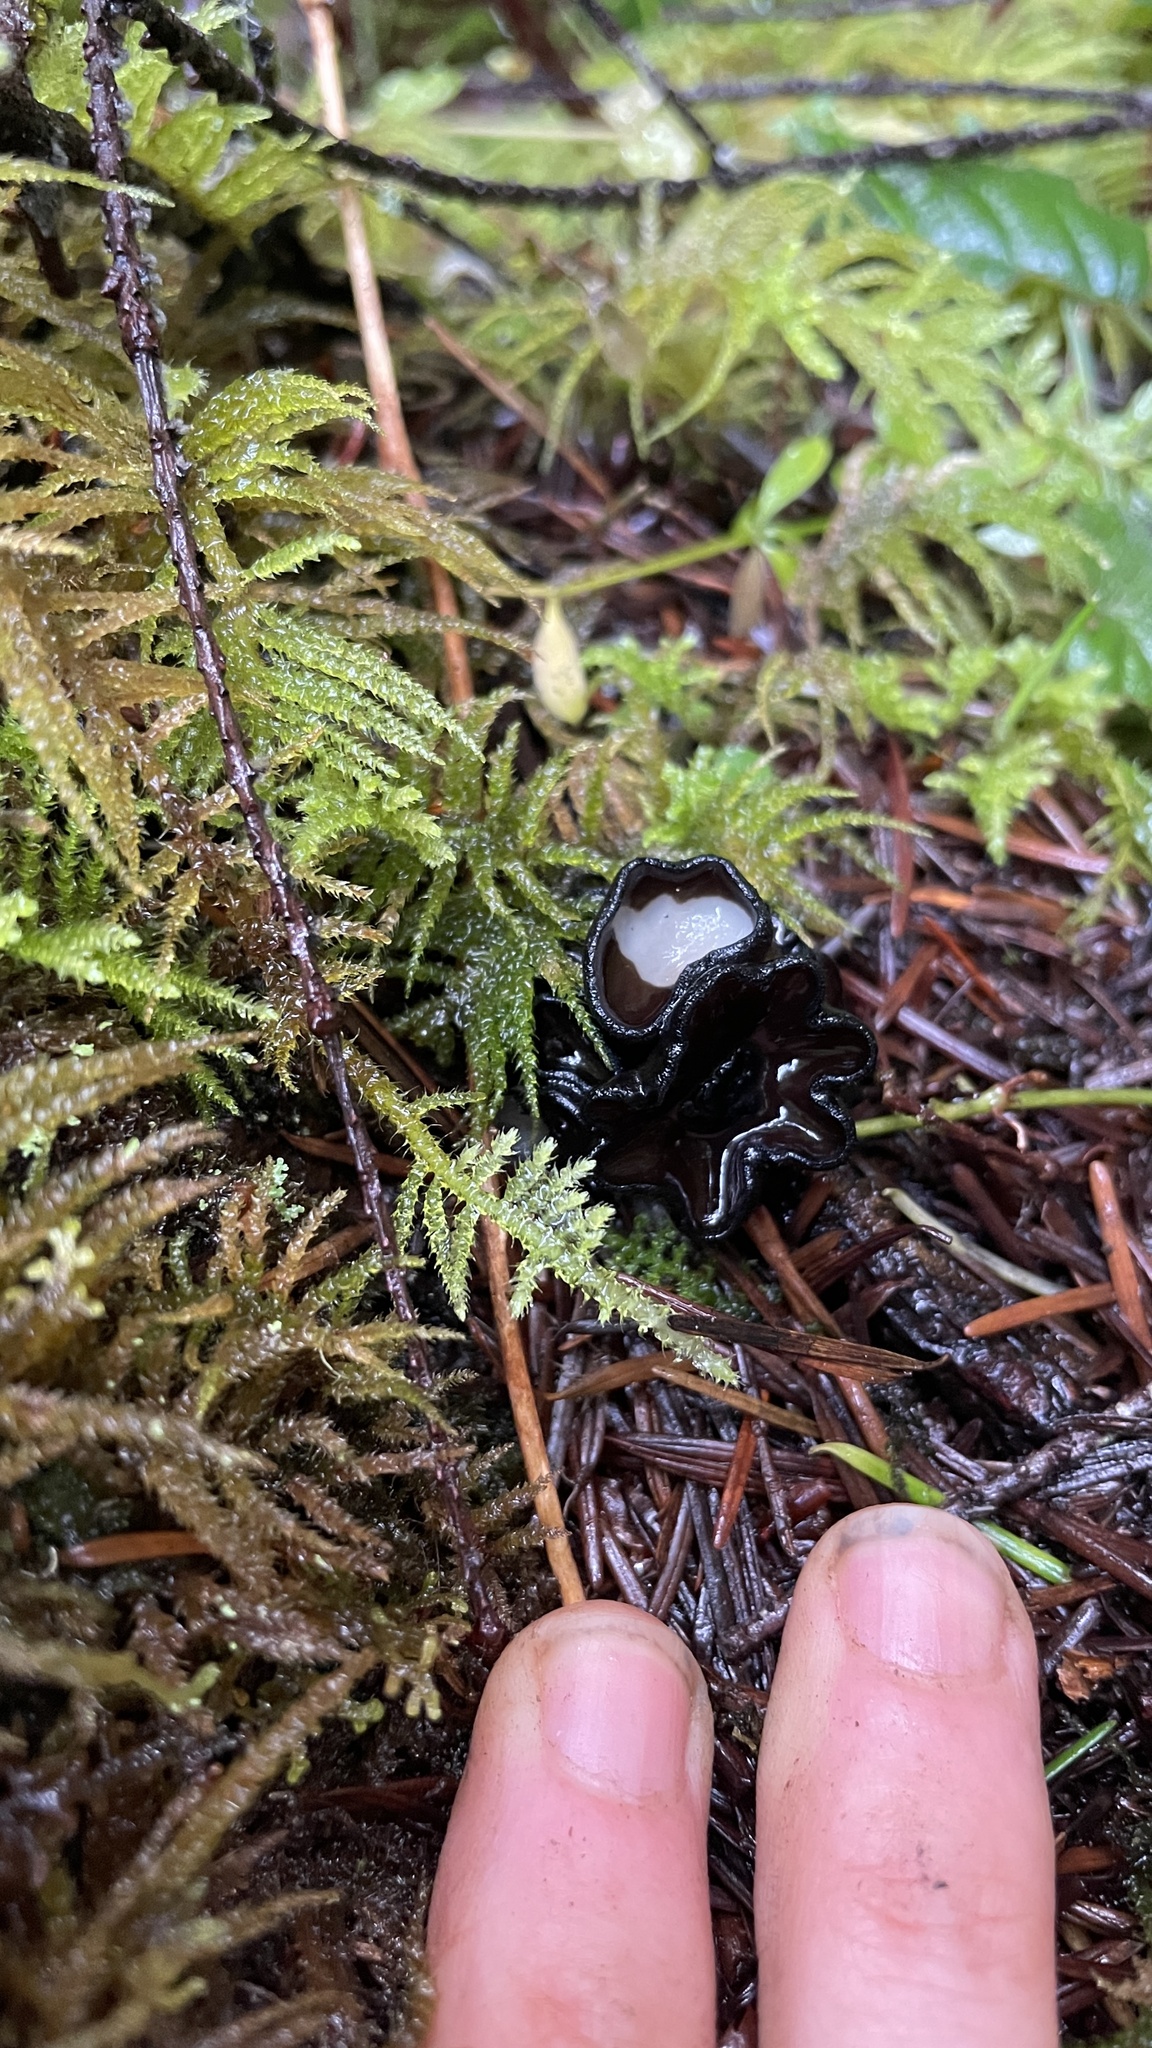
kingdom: Fungi
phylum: Ascomycota
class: Pezizomycetes
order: Pezizales
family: Sarcosomataceae
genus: Pseudoplectania
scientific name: Pseudoplectania melaena
